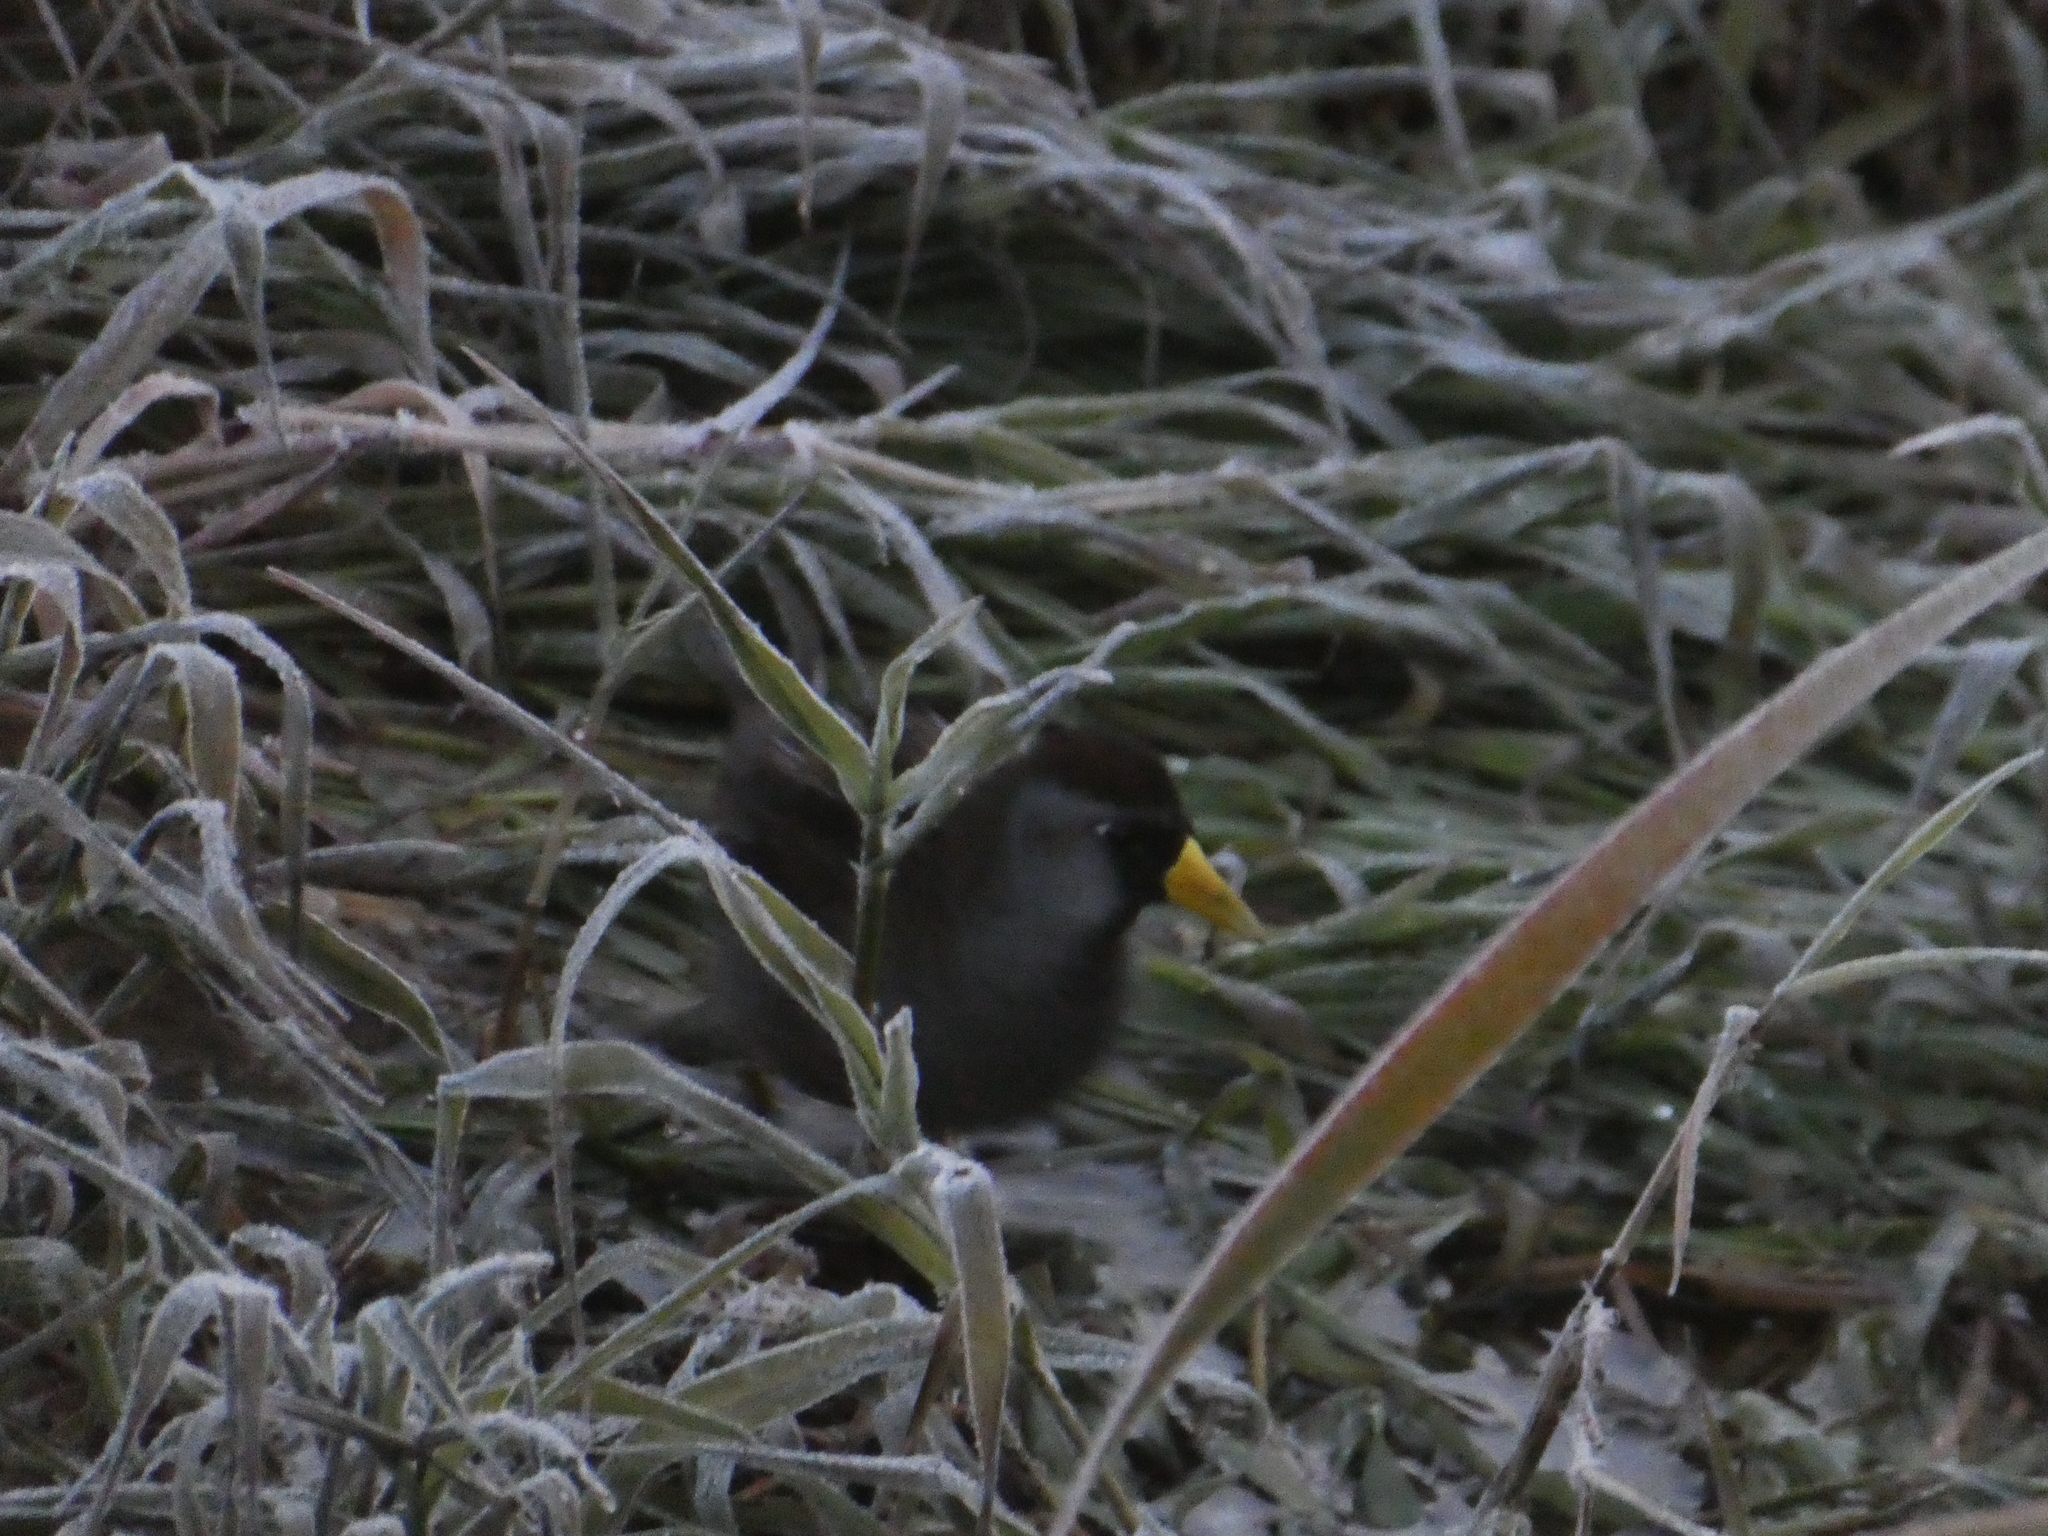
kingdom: Animalia
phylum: Chordata
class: Aves
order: Gruiformes
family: Rallidae
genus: Porzana
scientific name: Porzana carolina
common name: Sora
